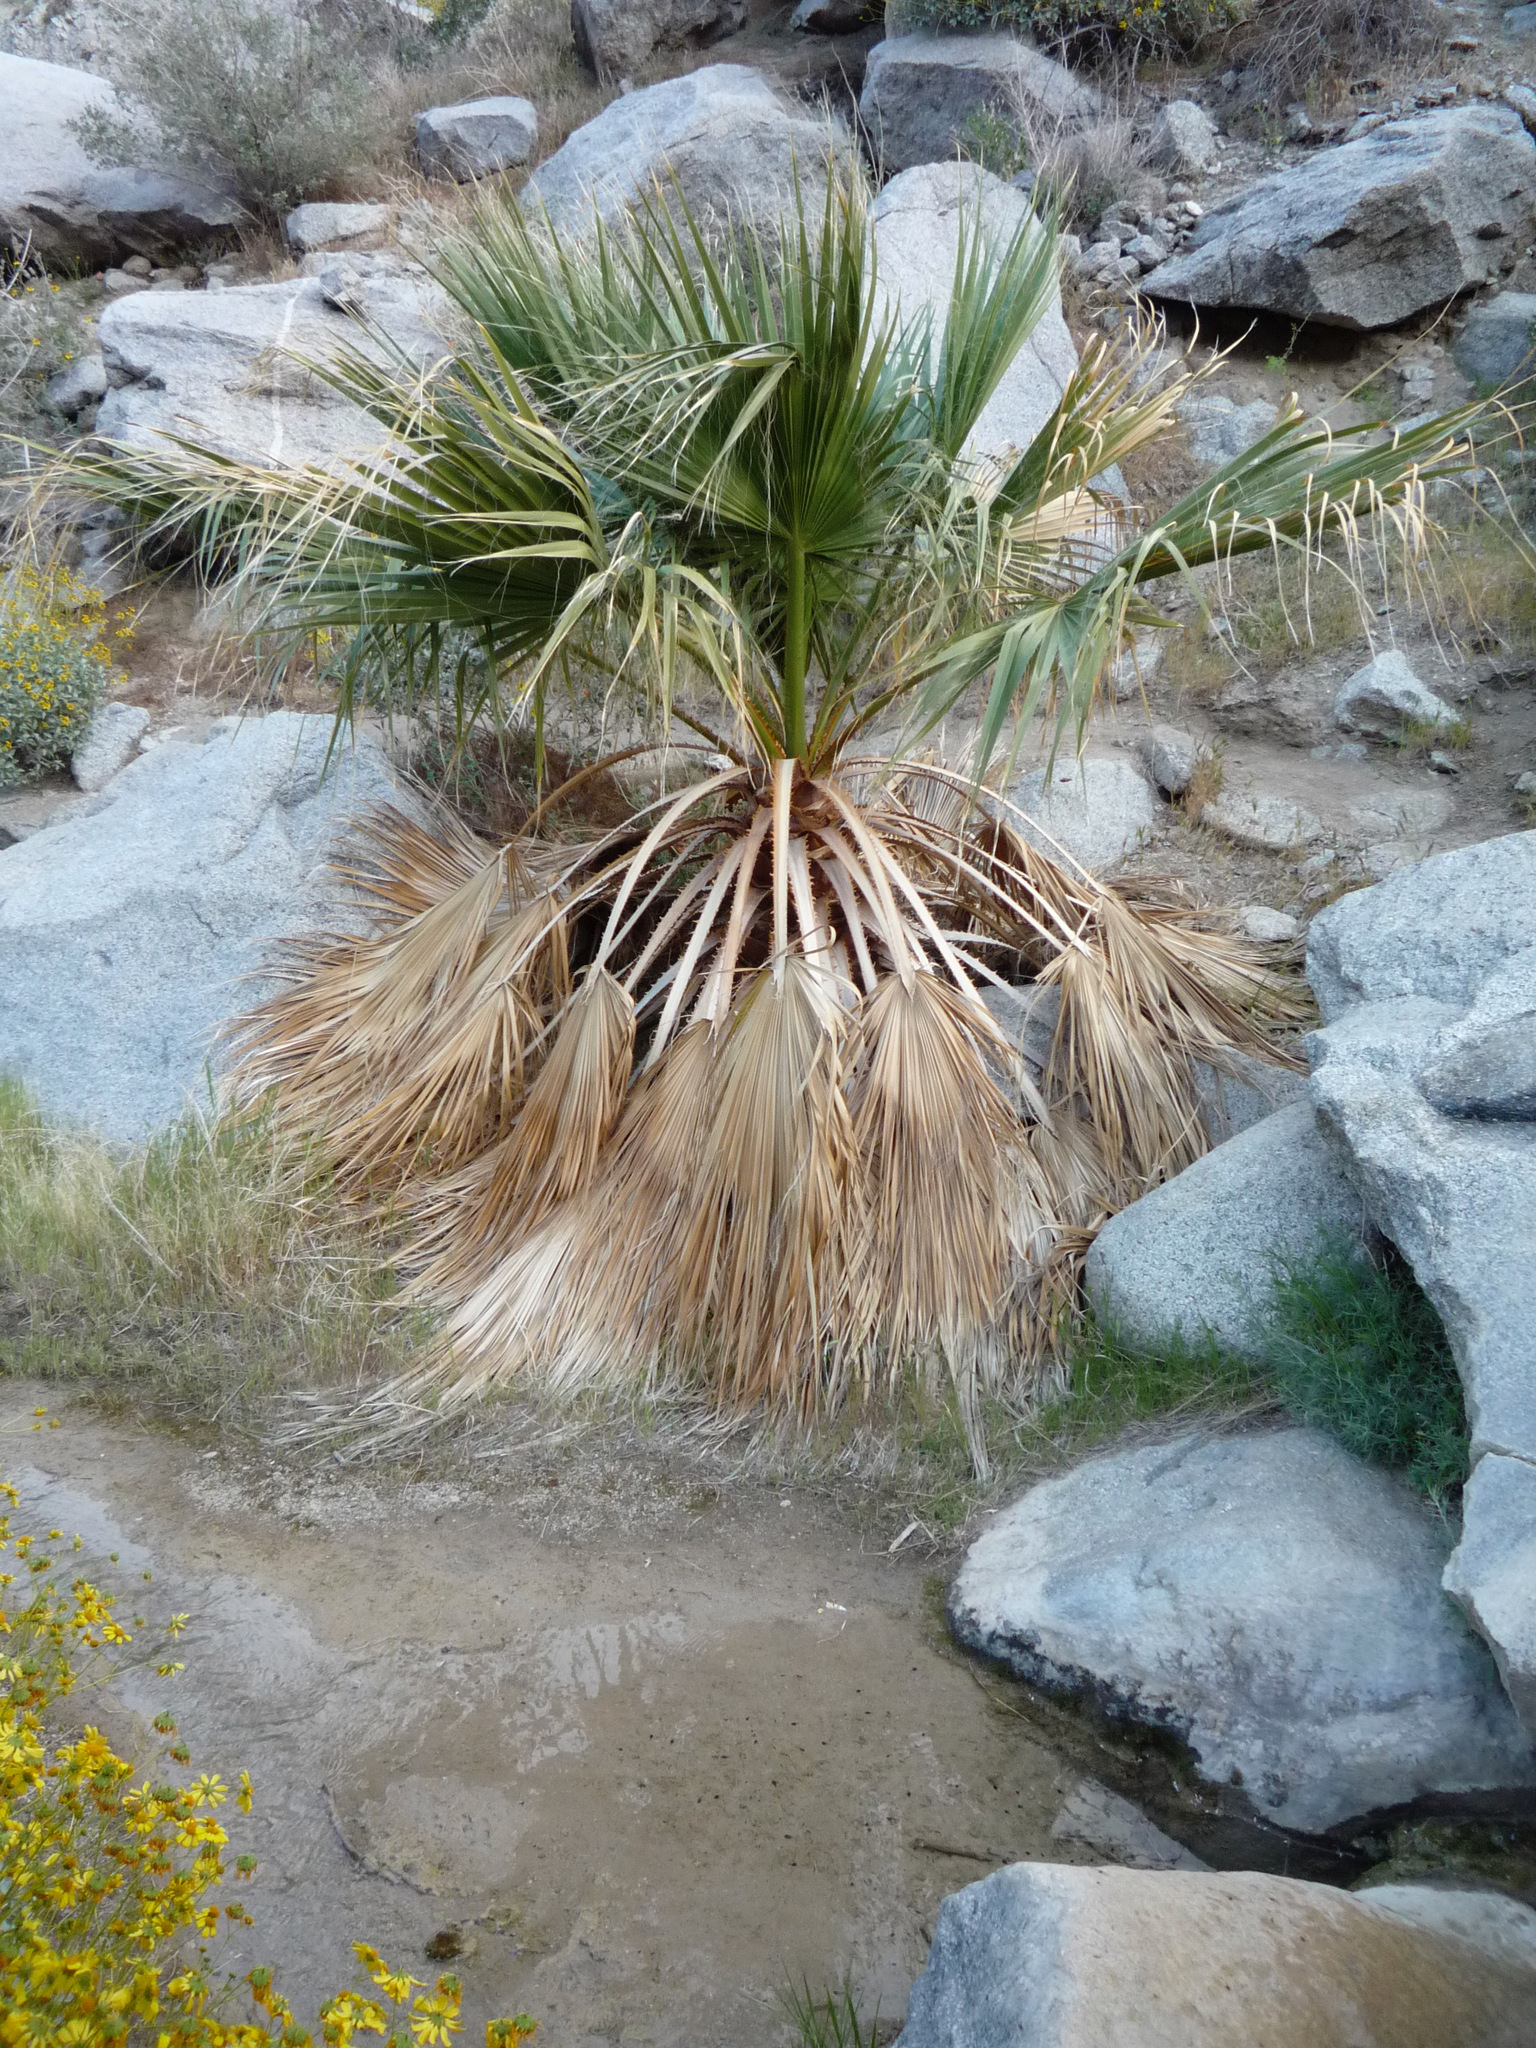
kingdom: Plantae
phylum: Tracheophyta
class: Liliopsida
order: Arecales
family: Arecaceae
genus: Washingtonia
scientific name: Washingtonia filifera
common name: California fan palm
